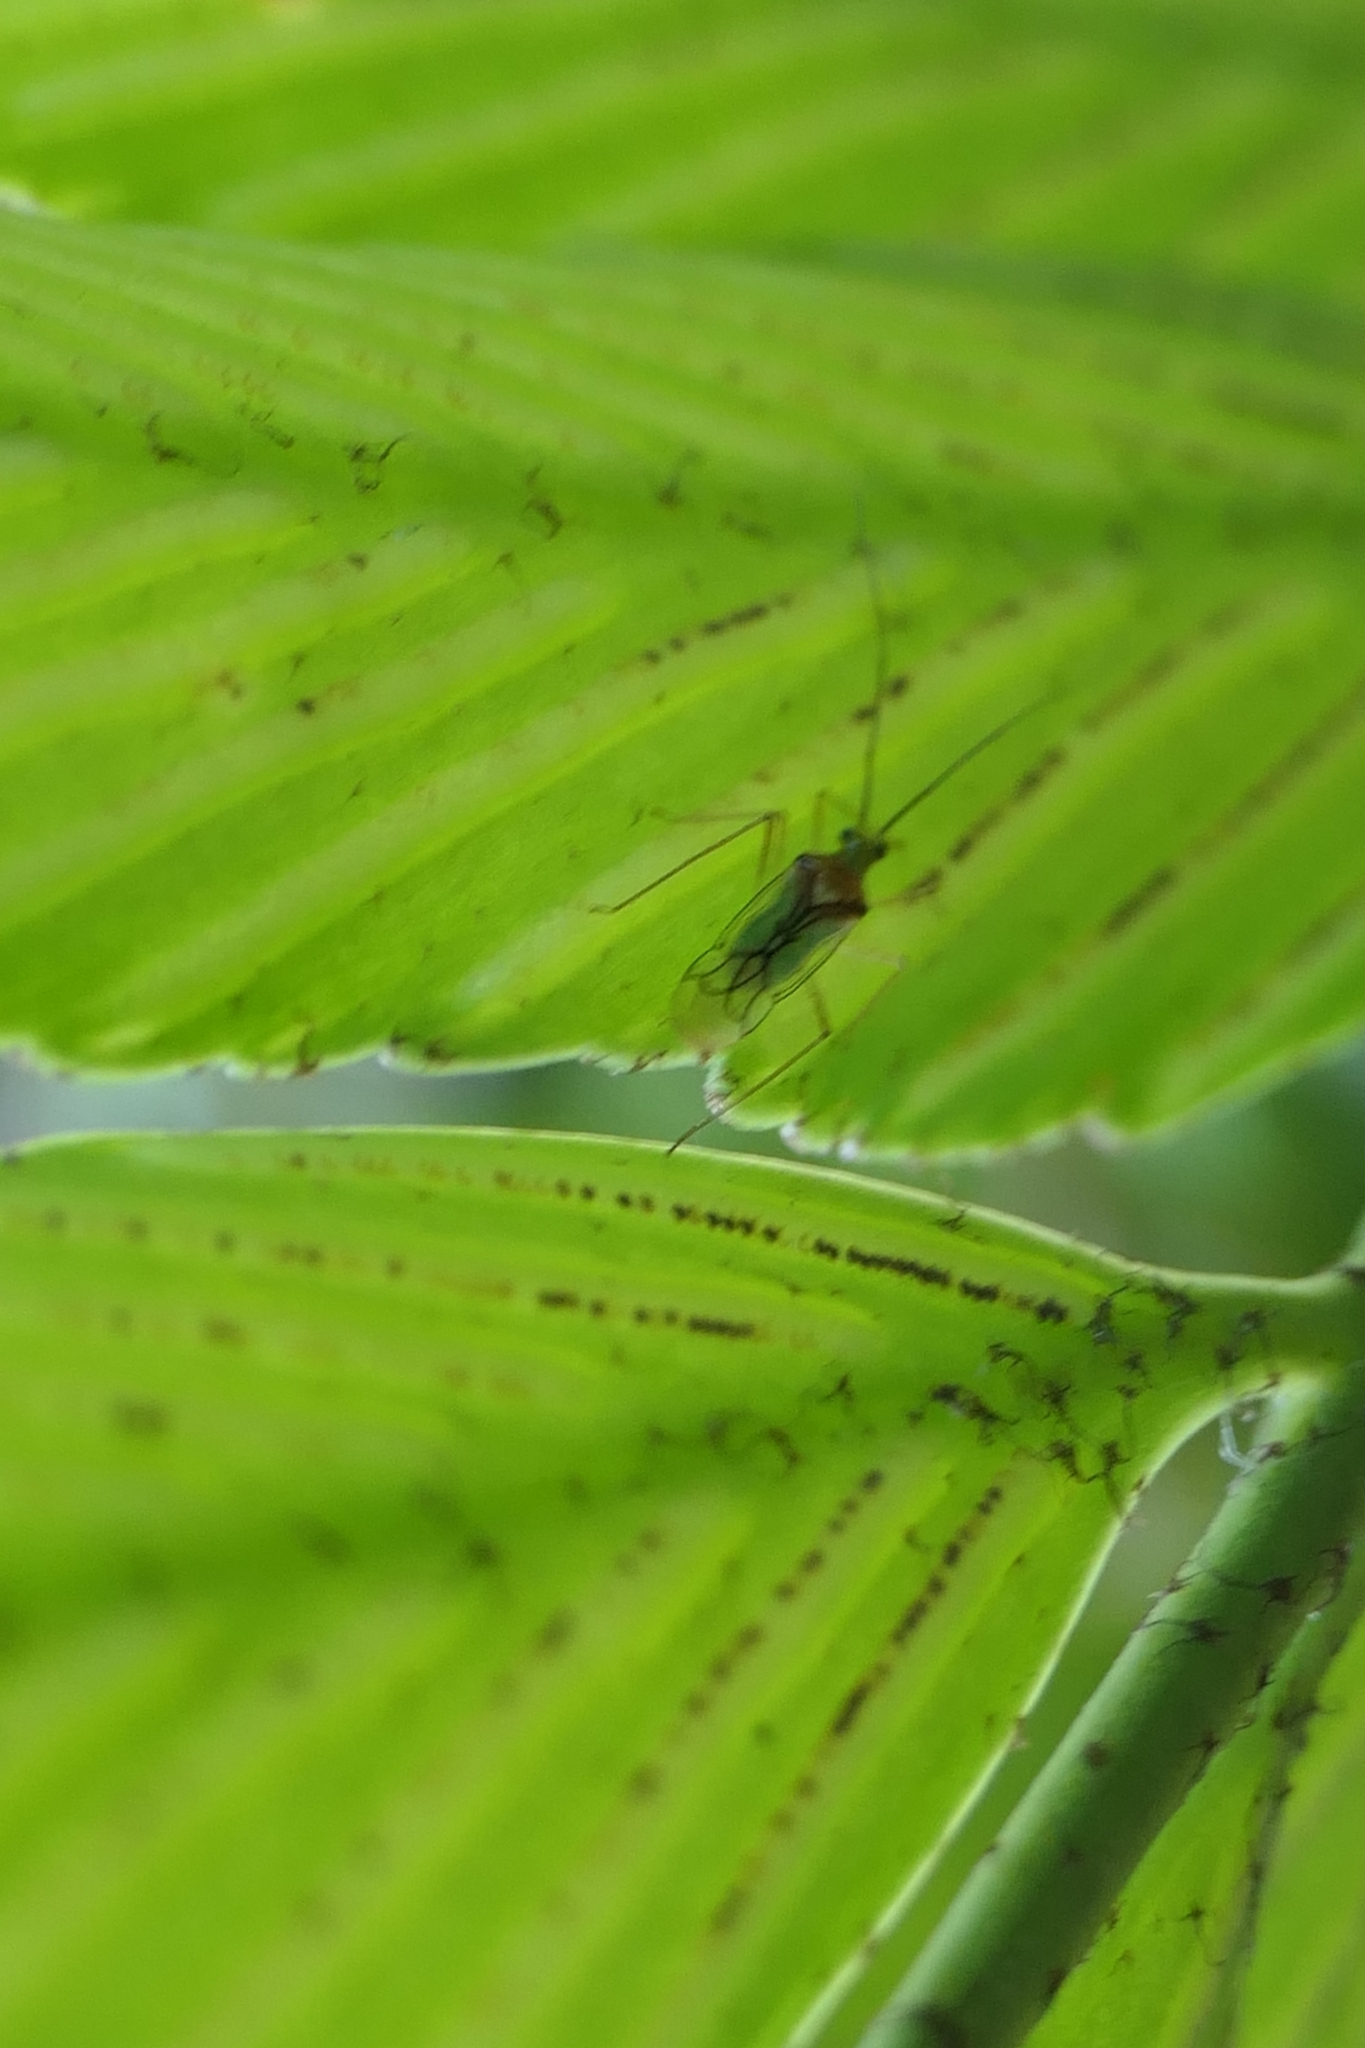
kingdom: Animalia
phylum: Arthropoda
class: Insecta
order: Hemiptera
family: Miridae
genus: Felisacus
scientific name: Felisacus elegantulus
